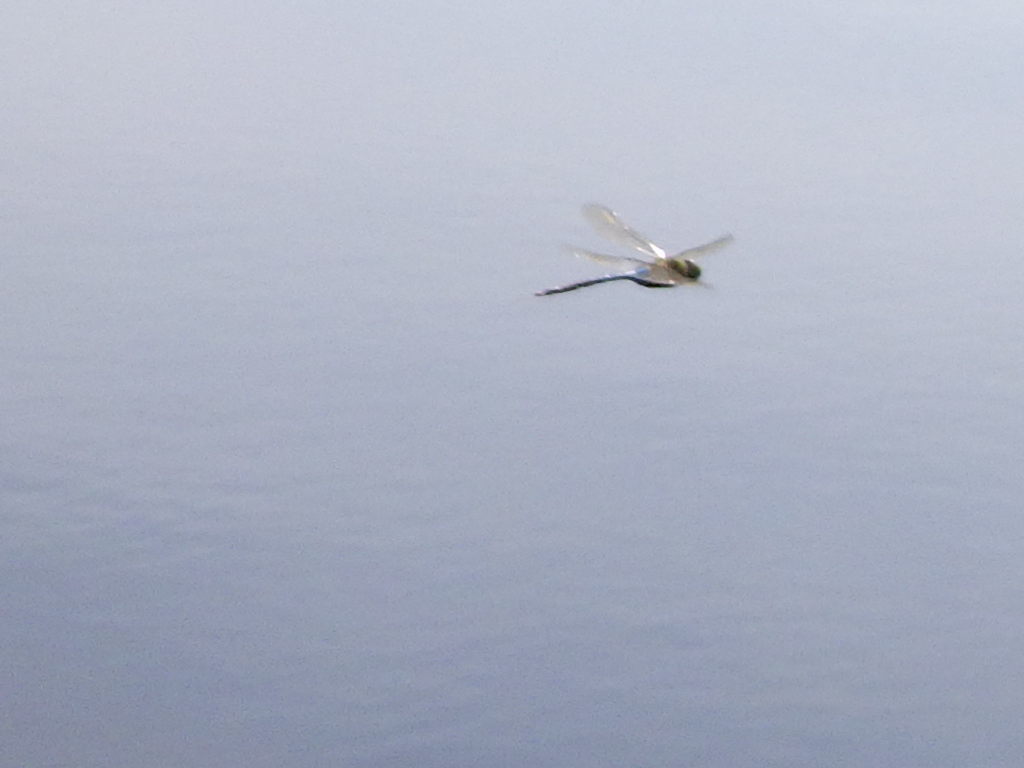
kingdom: Animalia
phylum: Arthropoda
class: Insecta
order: Odonata
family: Aeshnidae
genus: Anax
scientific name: Anax junius
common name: Common green darner
